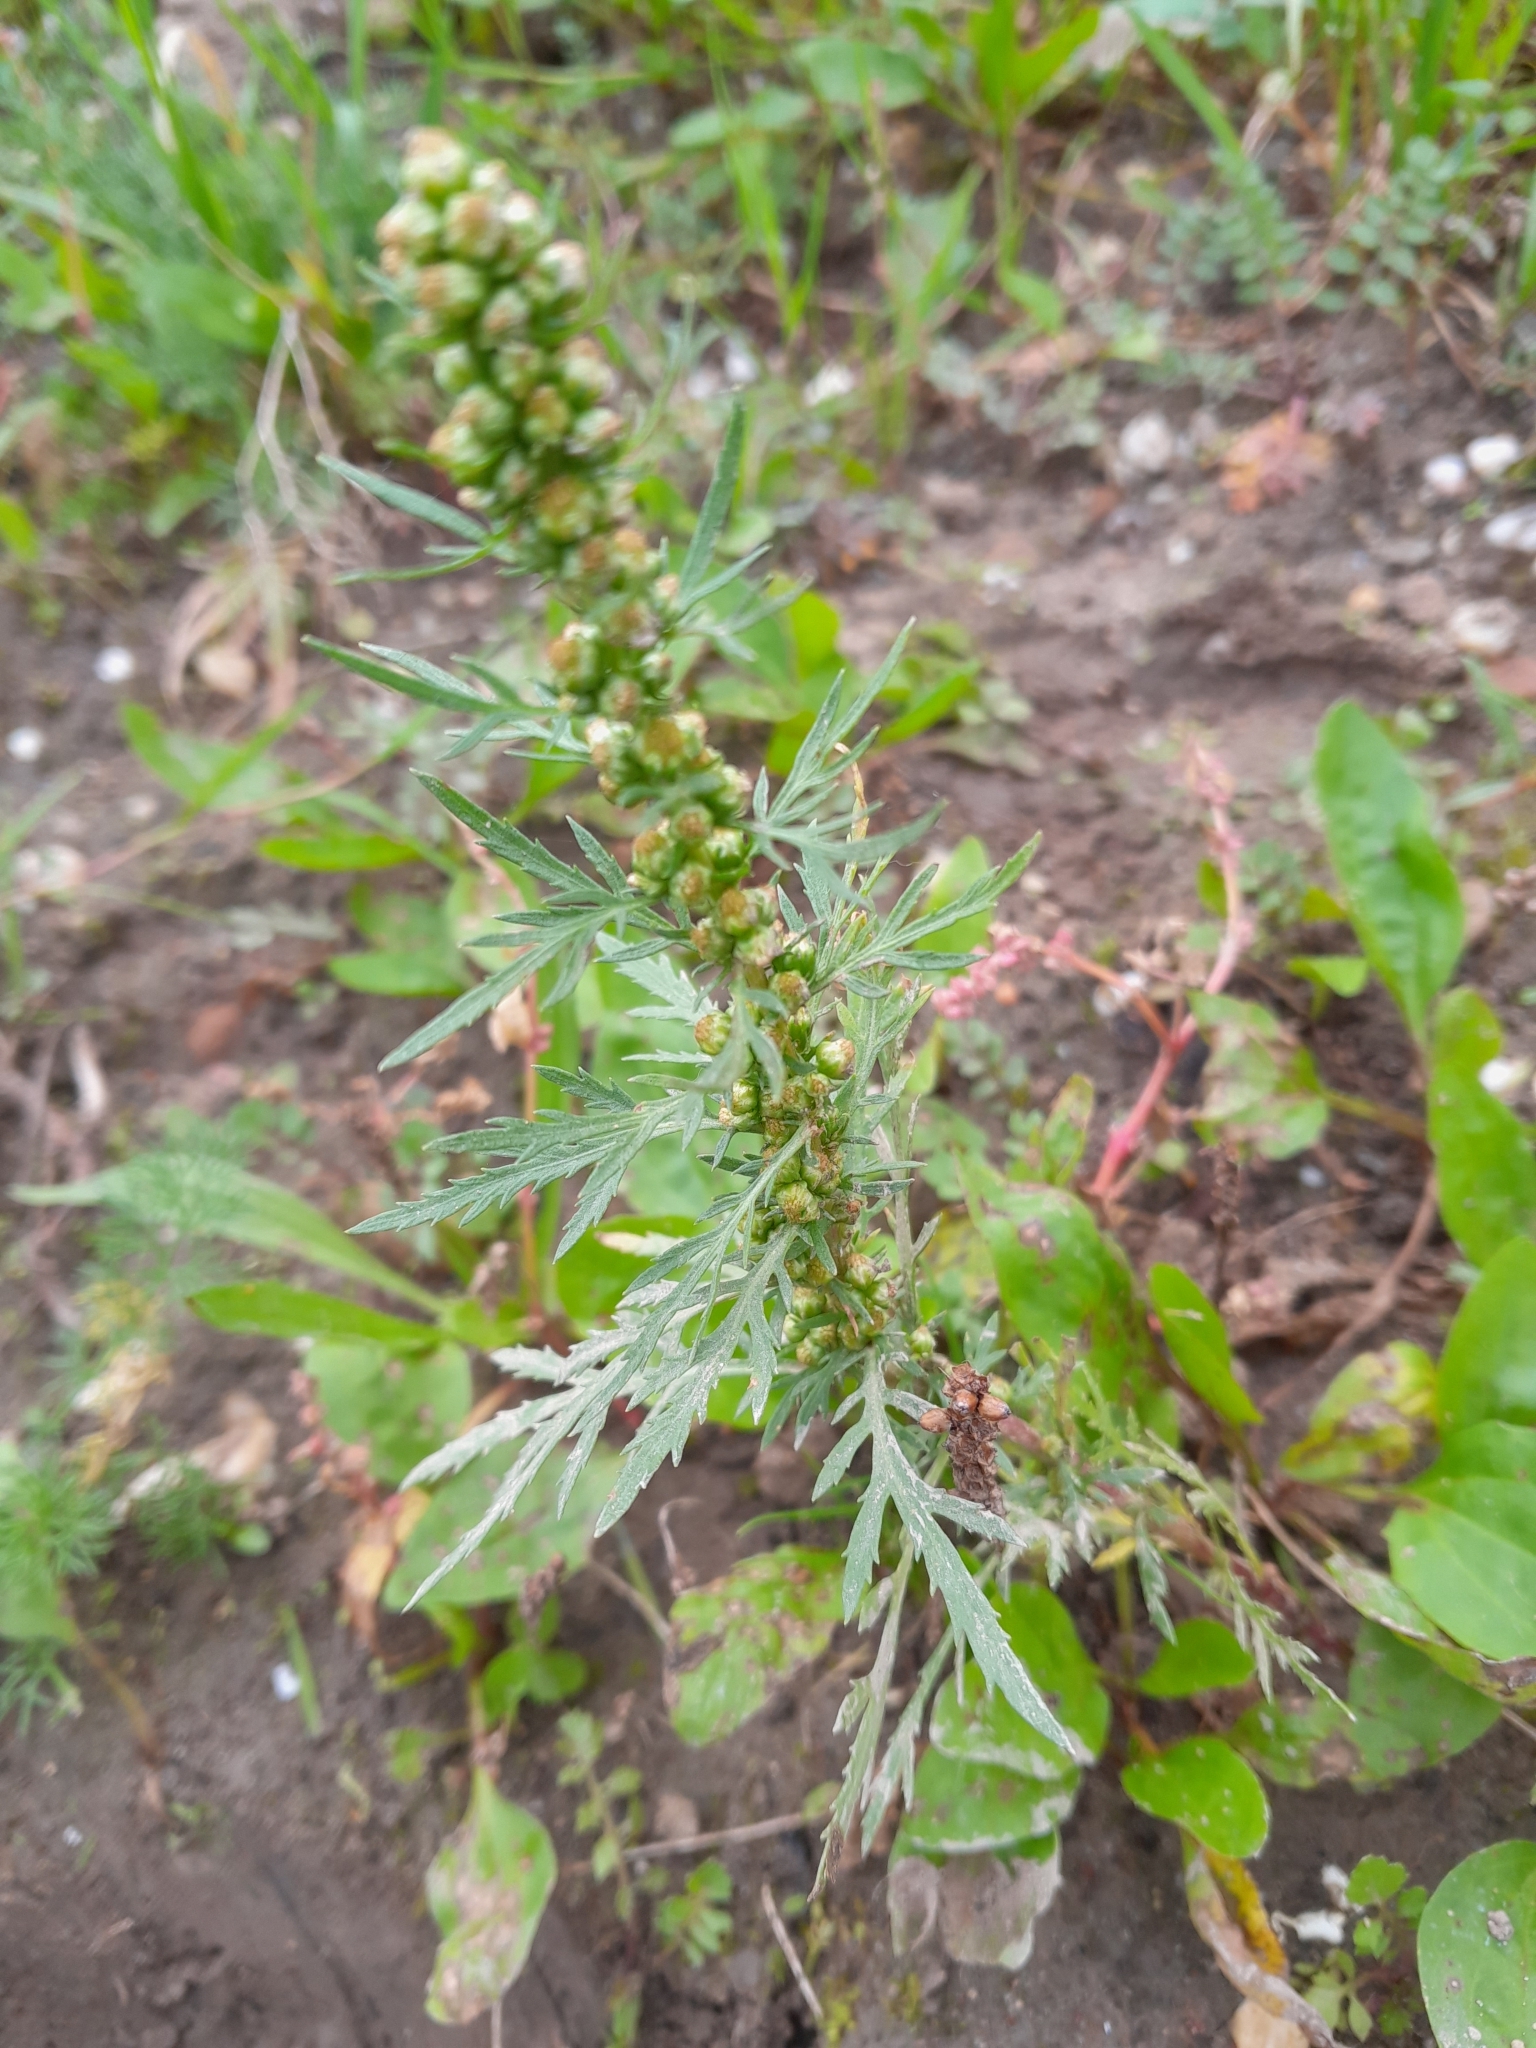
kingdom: Plantae
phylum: Tracheophyta
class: Magnoliopsida
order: Asterales
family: Asteraceae
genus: Artemisia
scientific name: Artemisia biennis
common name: Biennial wormwood
